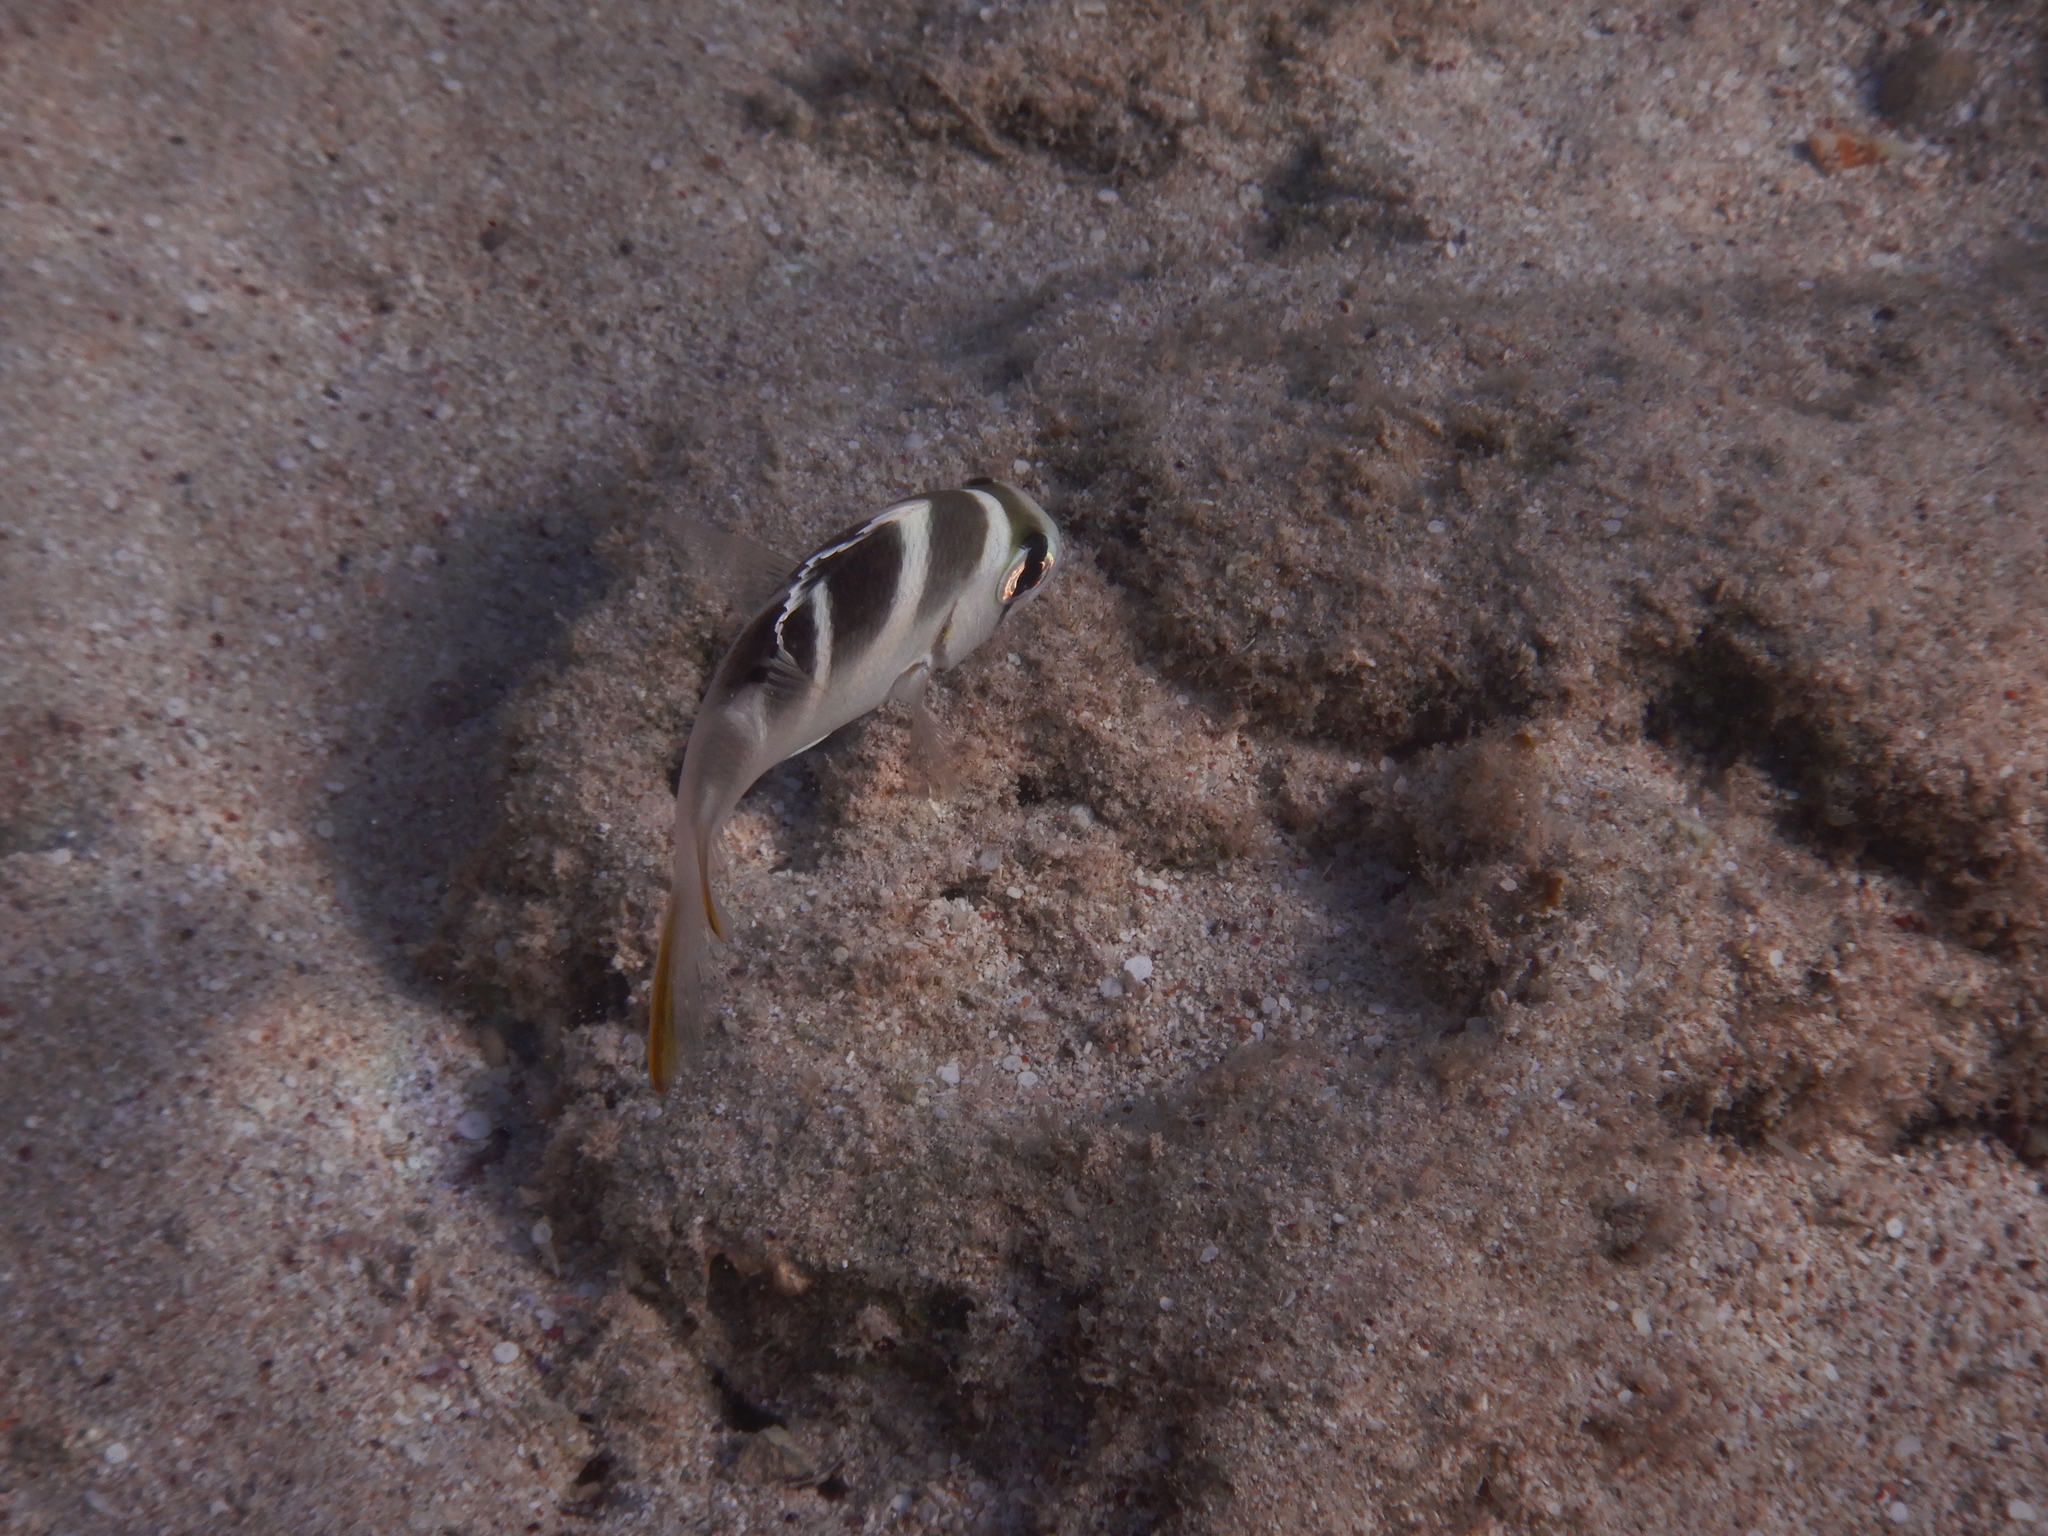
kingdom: Animalia
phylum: Chordata
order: Perciformes
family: Lethrinidae
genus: Monotaxis
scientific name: Monotaxis grandoculis
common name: Bigeye emperor
